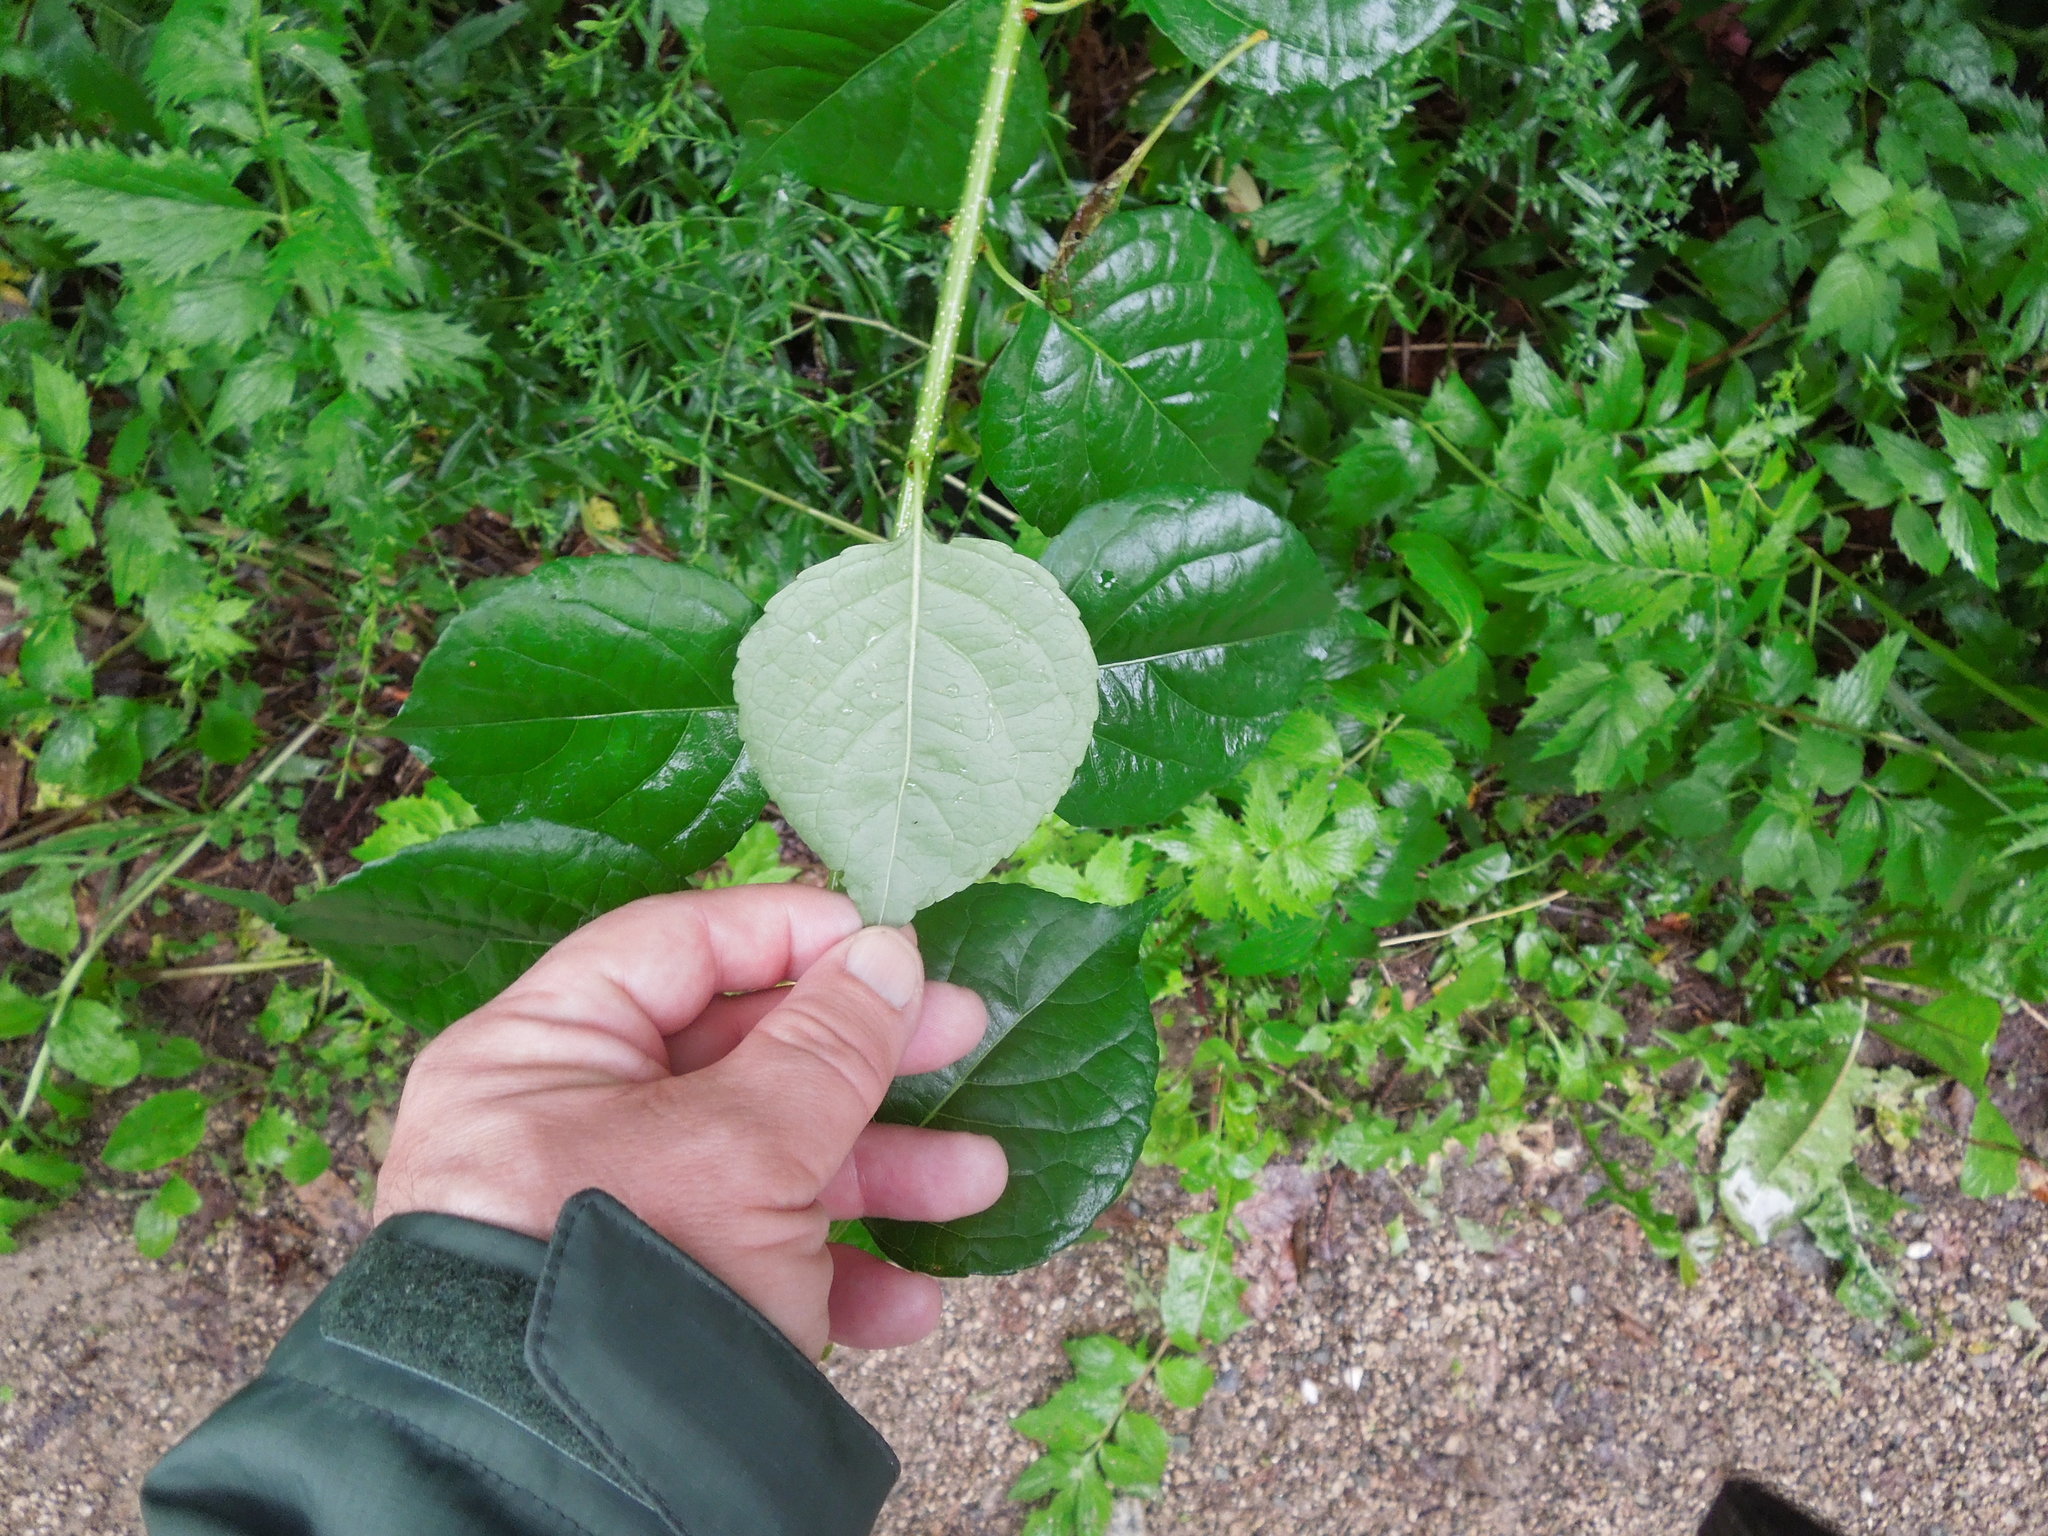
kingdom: Plantae
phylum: Tracheophyta
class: Magnoliopsida
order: Celastrales
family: Celastraceae
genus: Celastrus
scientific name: Celastrus orbiculatus
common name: Oriental bittersweet
